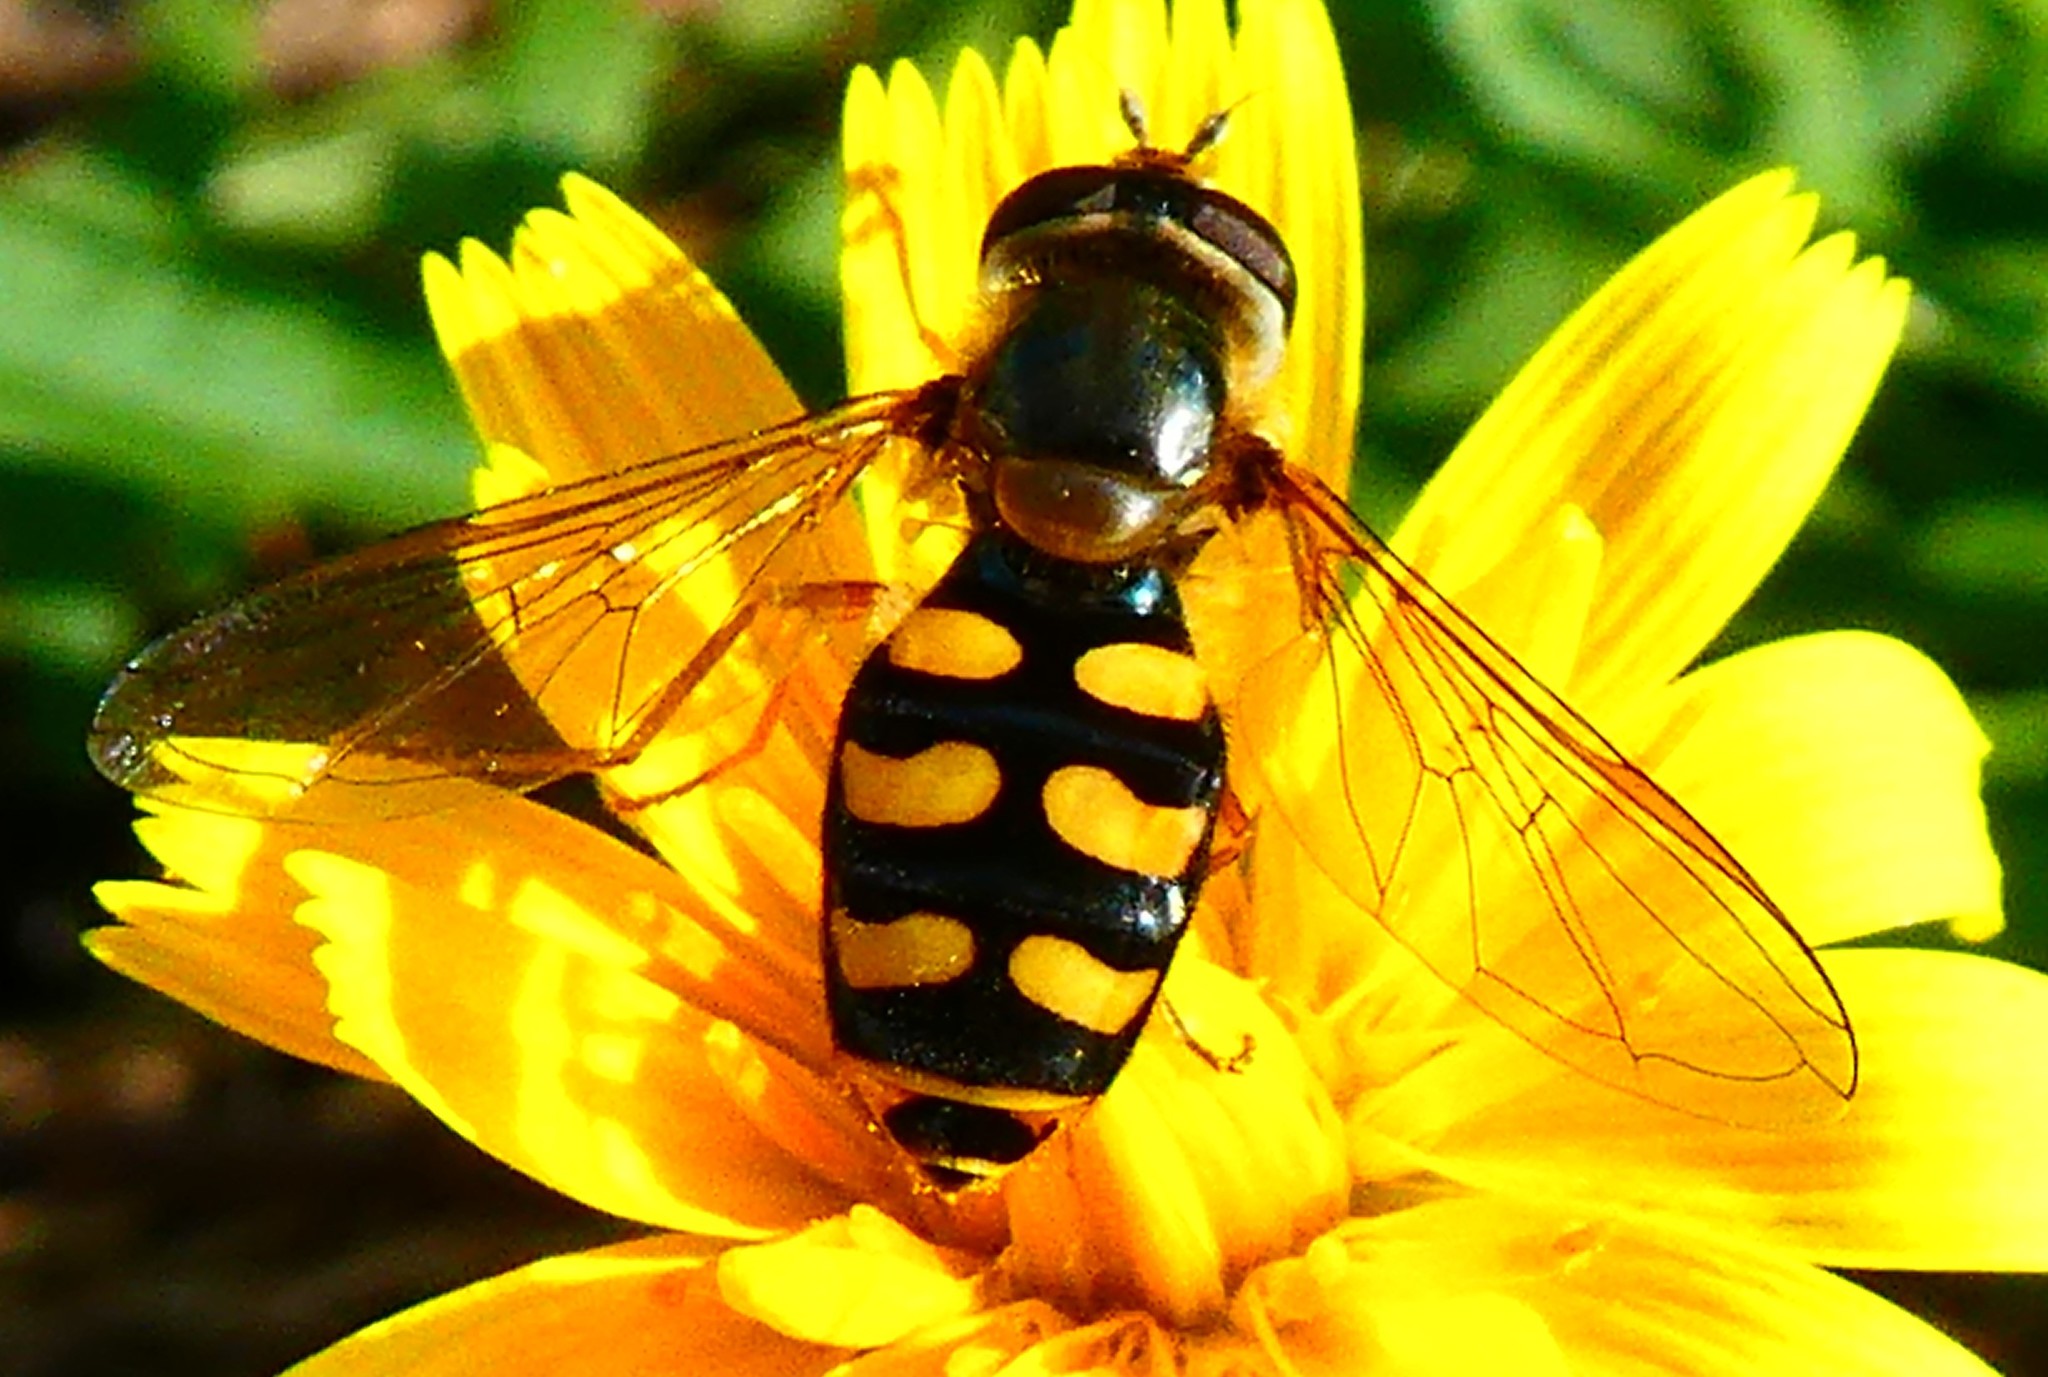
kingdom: Animalia
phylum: Arthropoda
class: Insecta
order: Diptera
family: Syrphidae
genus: Eupeodes
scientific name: Eupeodes luniger
